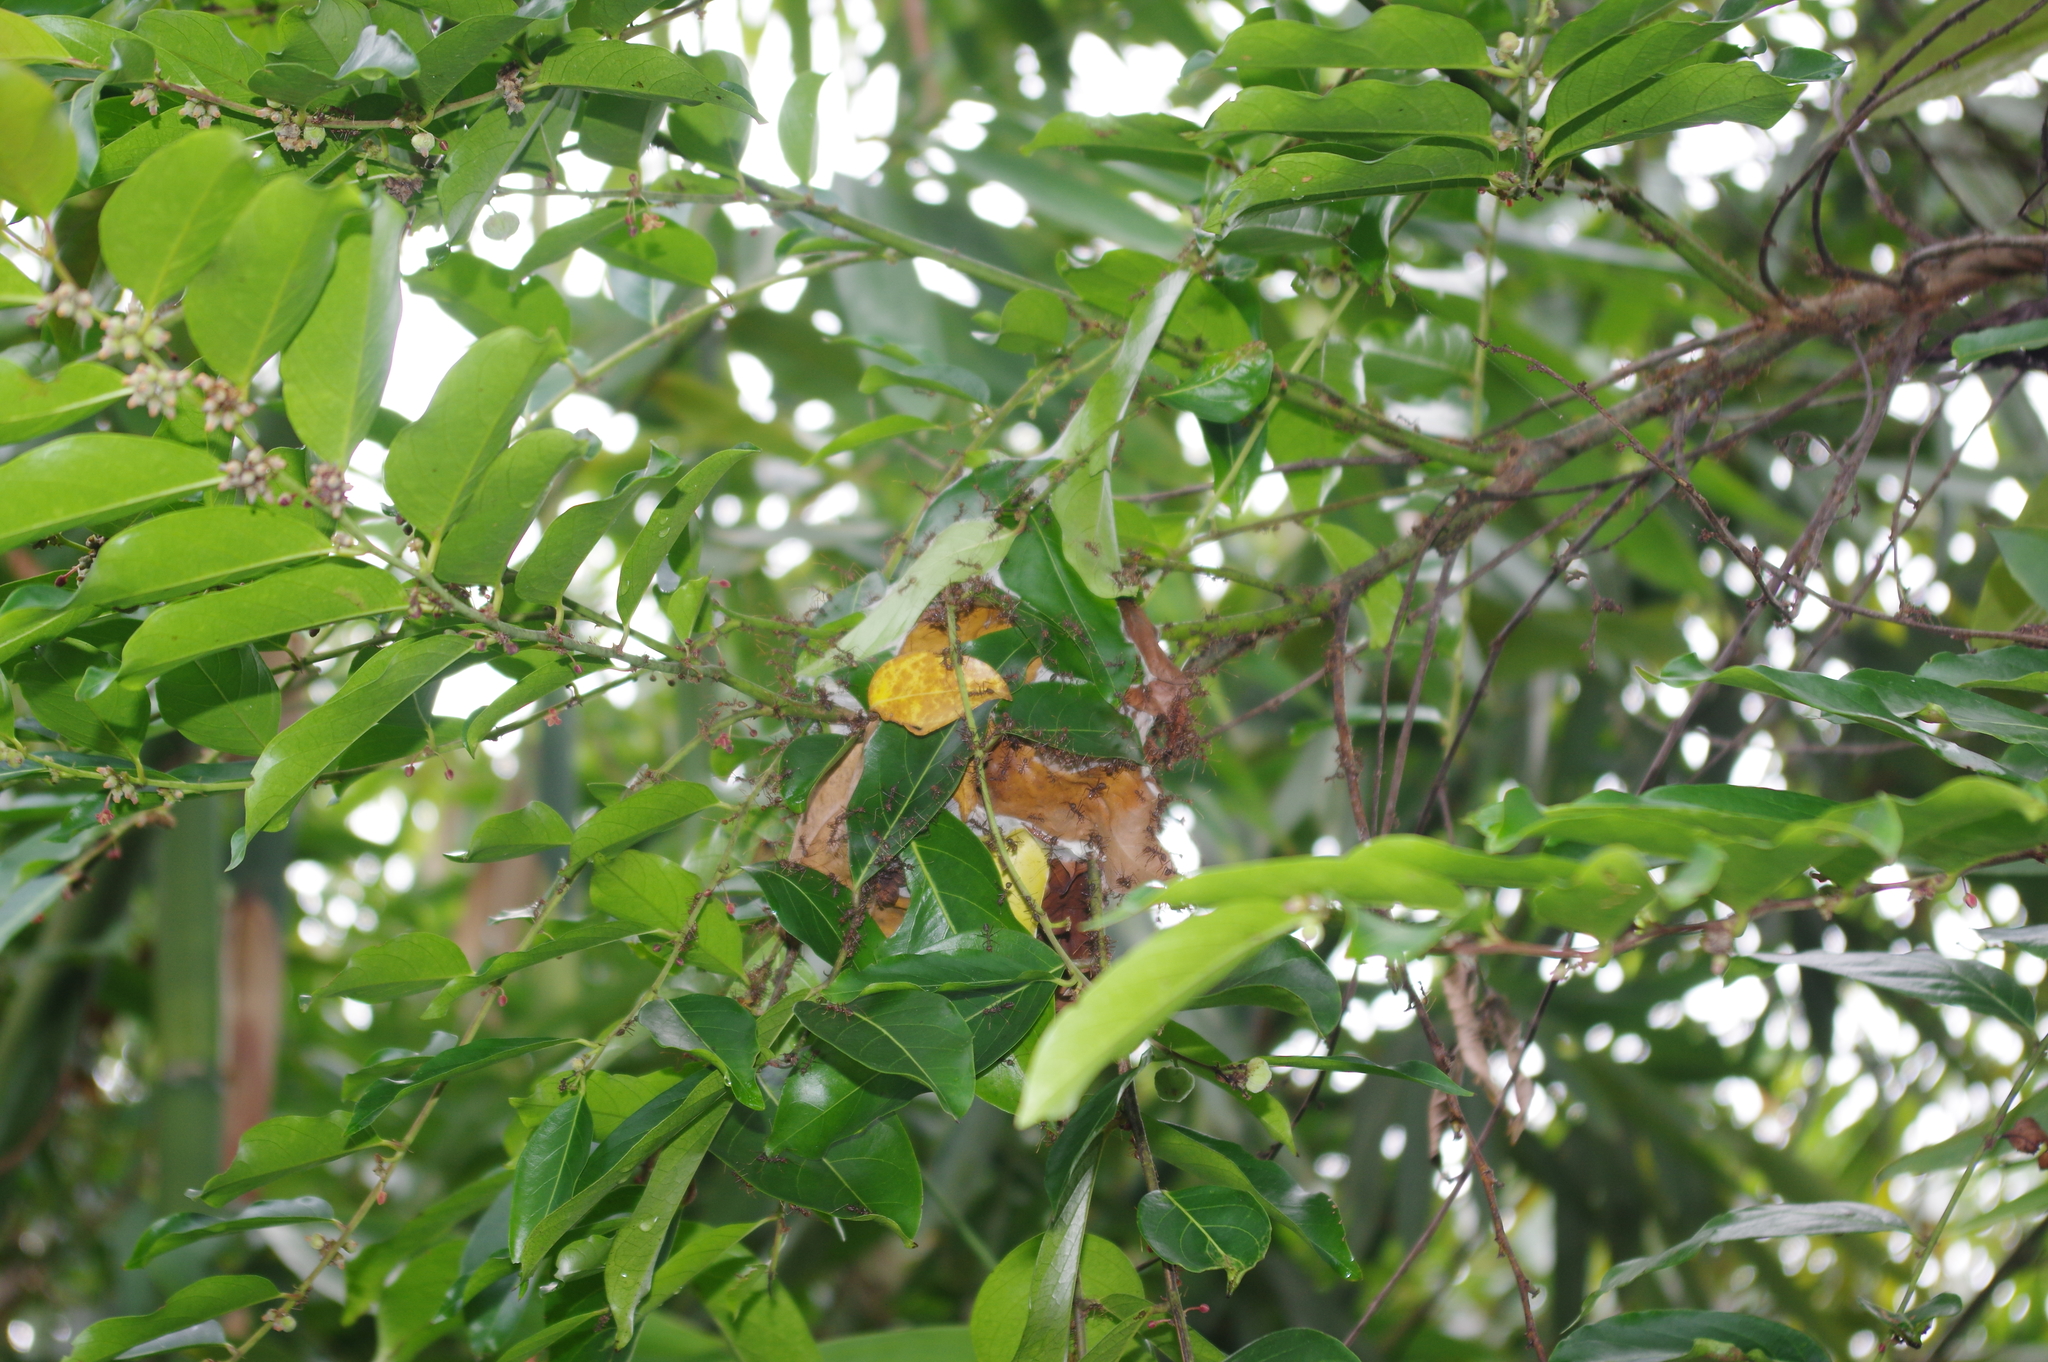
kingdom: Animalia
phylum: Arthropoda
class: Insecta
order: Hymenoptera
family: Formicidae
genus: Oecophylla
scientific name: Oecophylla smaragdina
